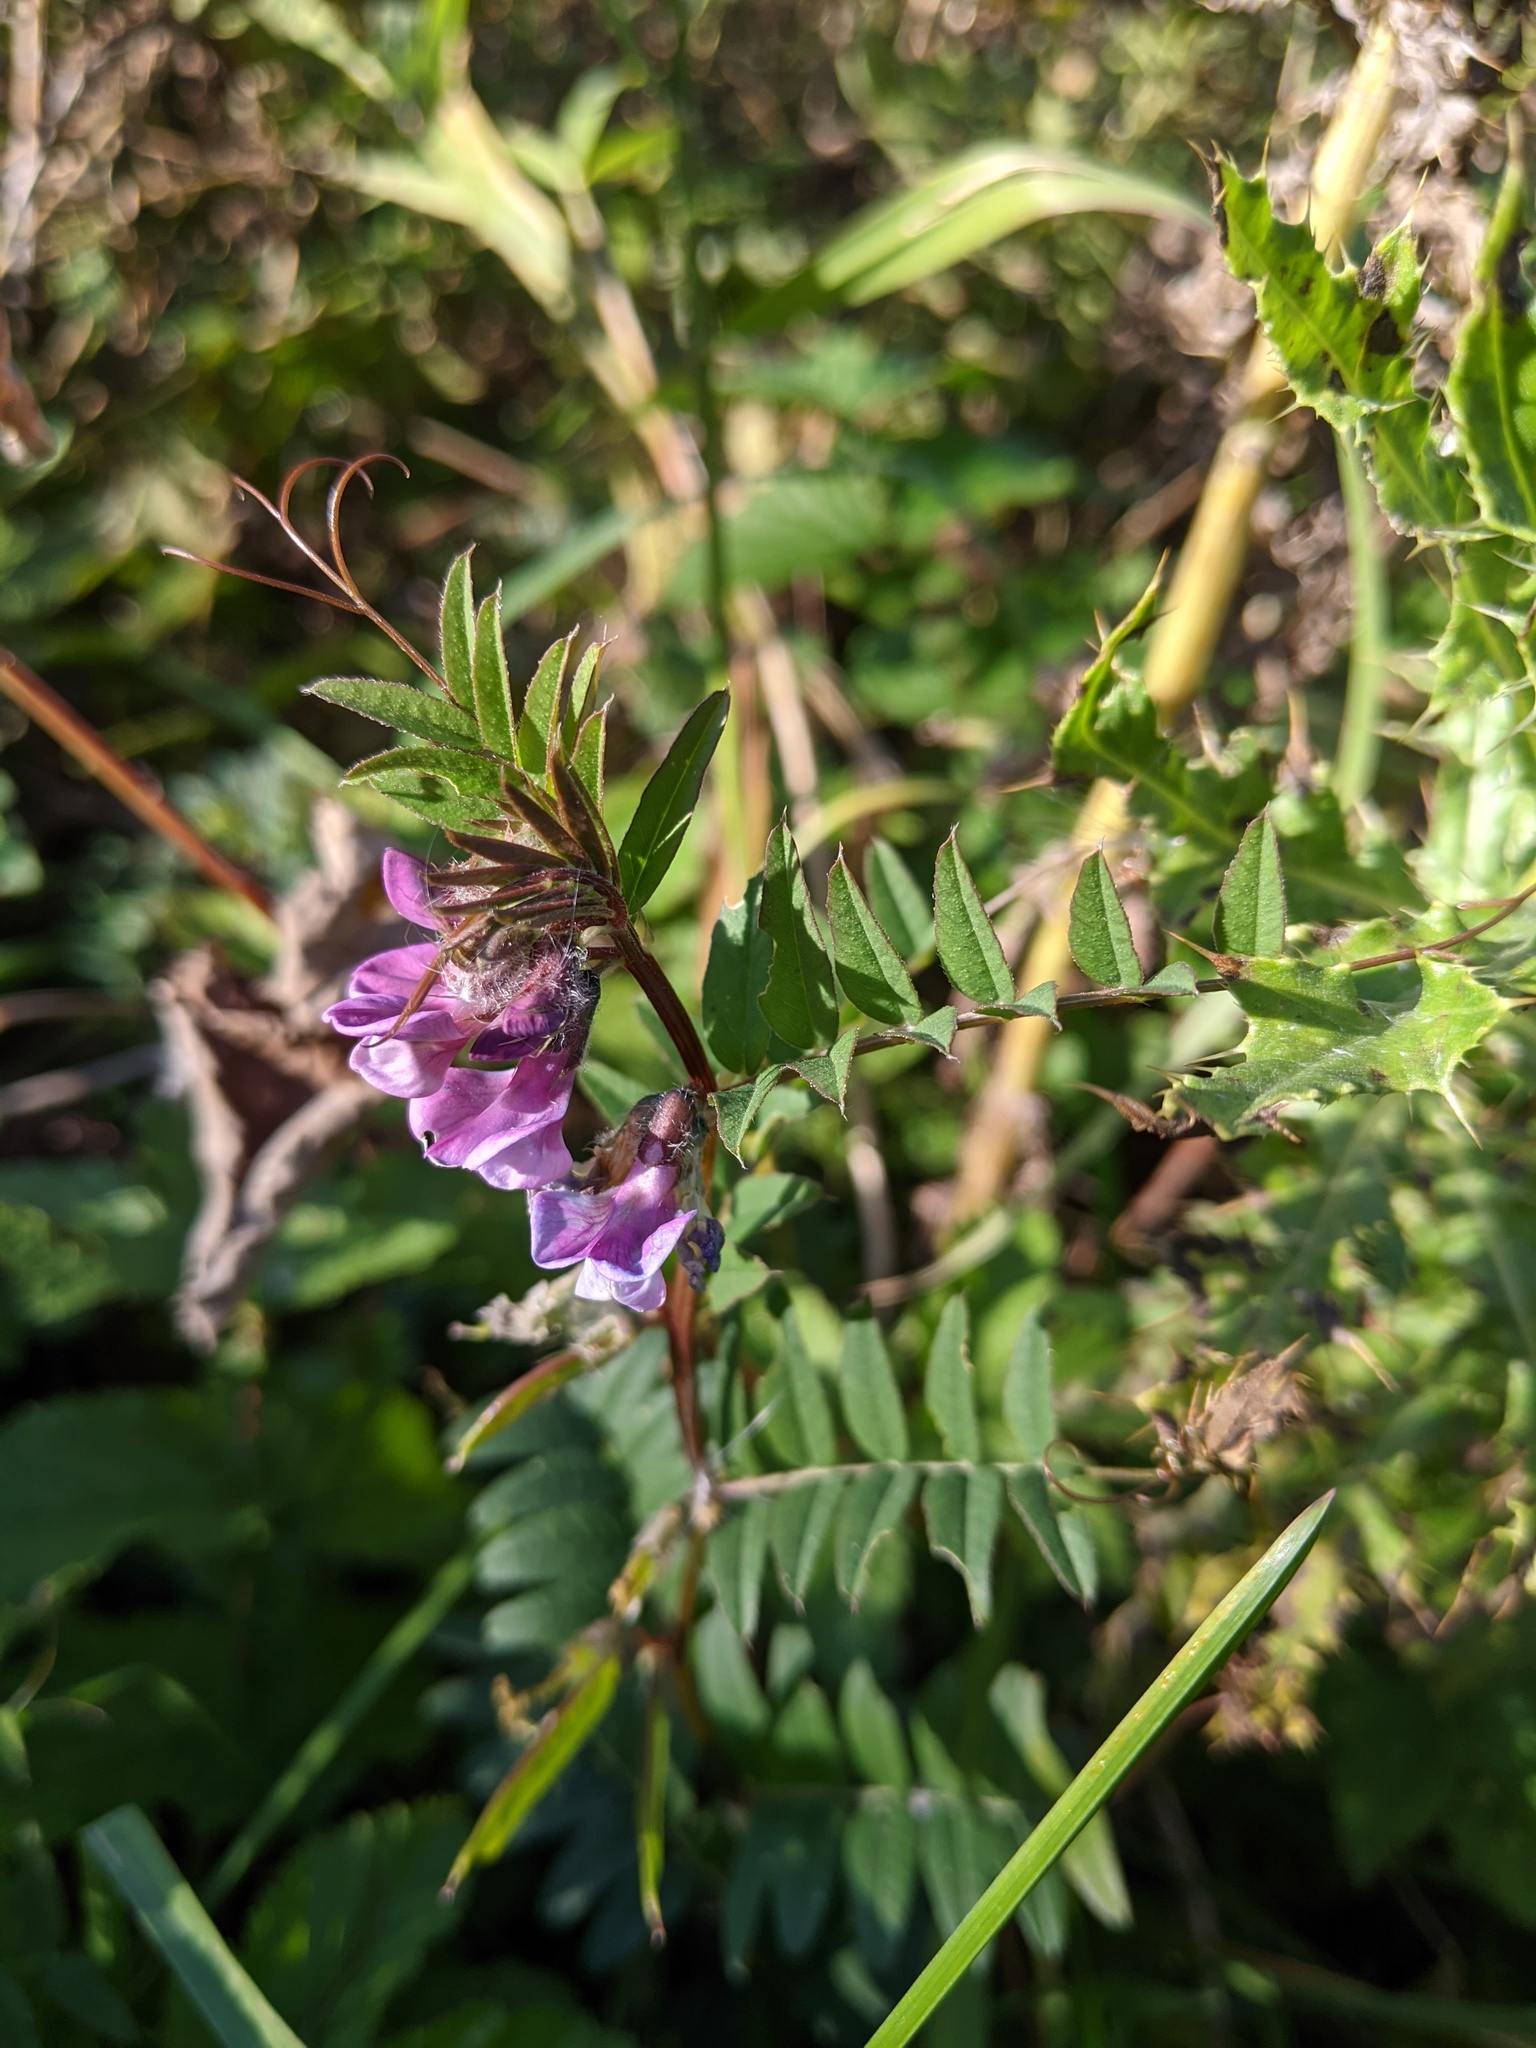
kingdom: Plantae
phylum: Tracheophyta
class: Magnoliopsida
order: Fabales
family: Fabaceae
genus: Vicia
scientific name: Vicia sepium
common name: Bush vetch
